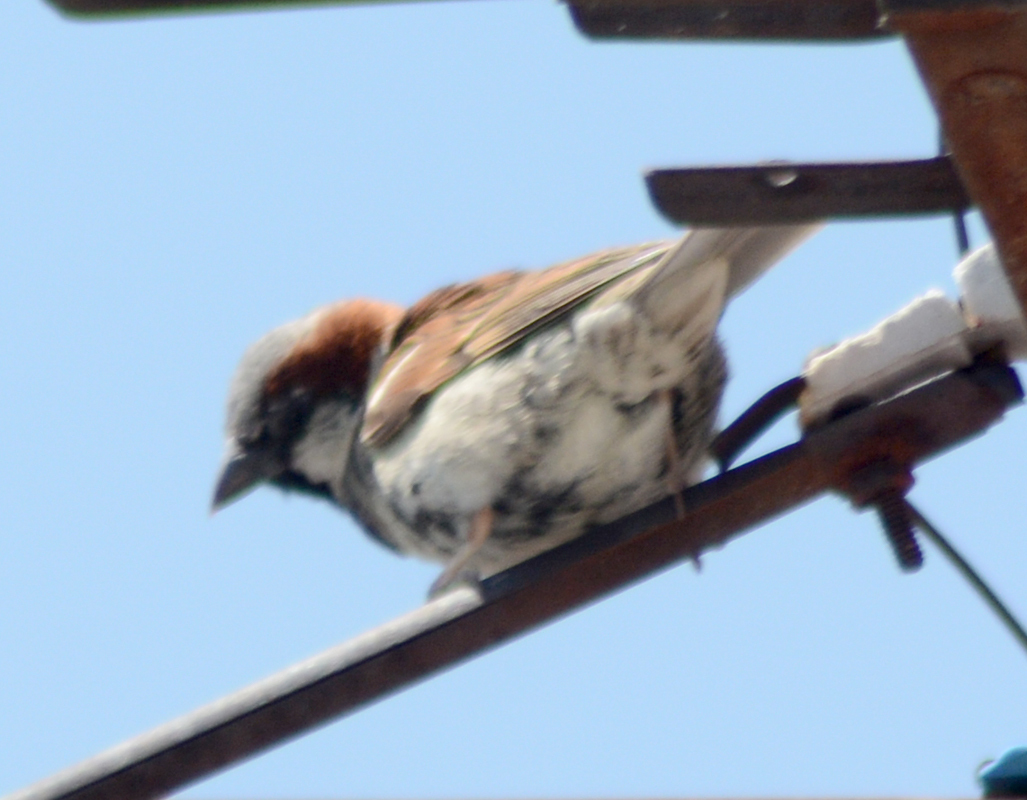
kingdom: Animalia
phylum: Chordata
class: Aves
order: Passeriformes
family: Passeridae
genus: Passer
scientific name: Passer domesticus
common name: House sparrow
